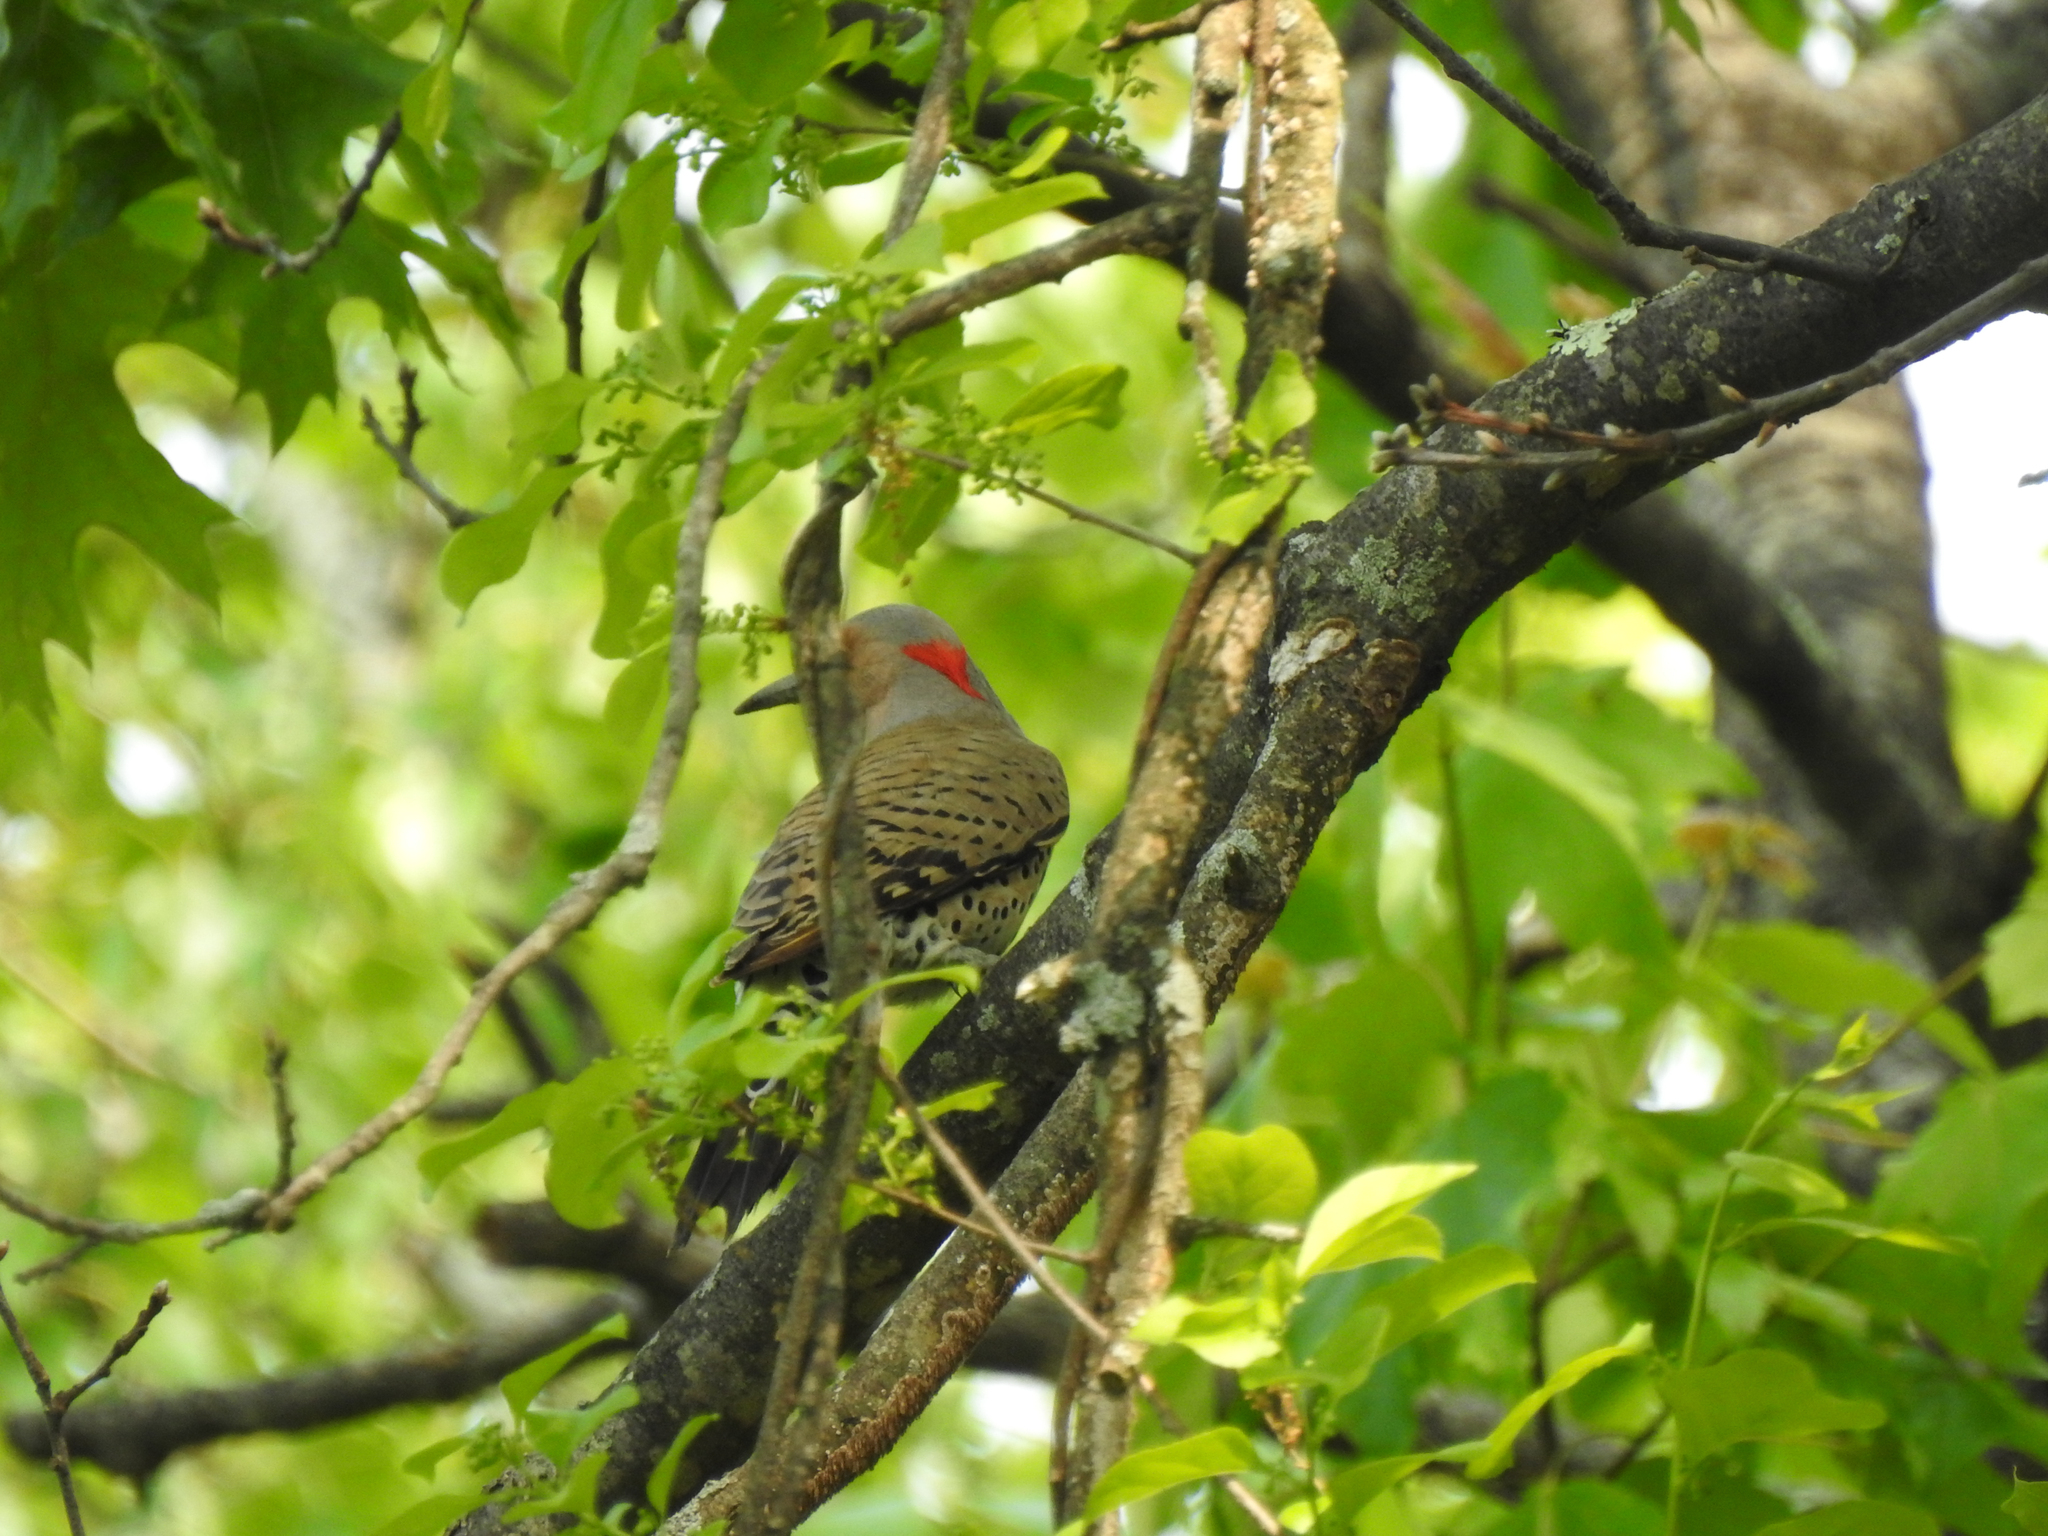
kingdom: Animalia
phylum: Chordata
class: Aves
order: Piciformes
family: Picidae
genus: Colaptes
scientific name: Colaptes auratus
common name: Northern flicker
